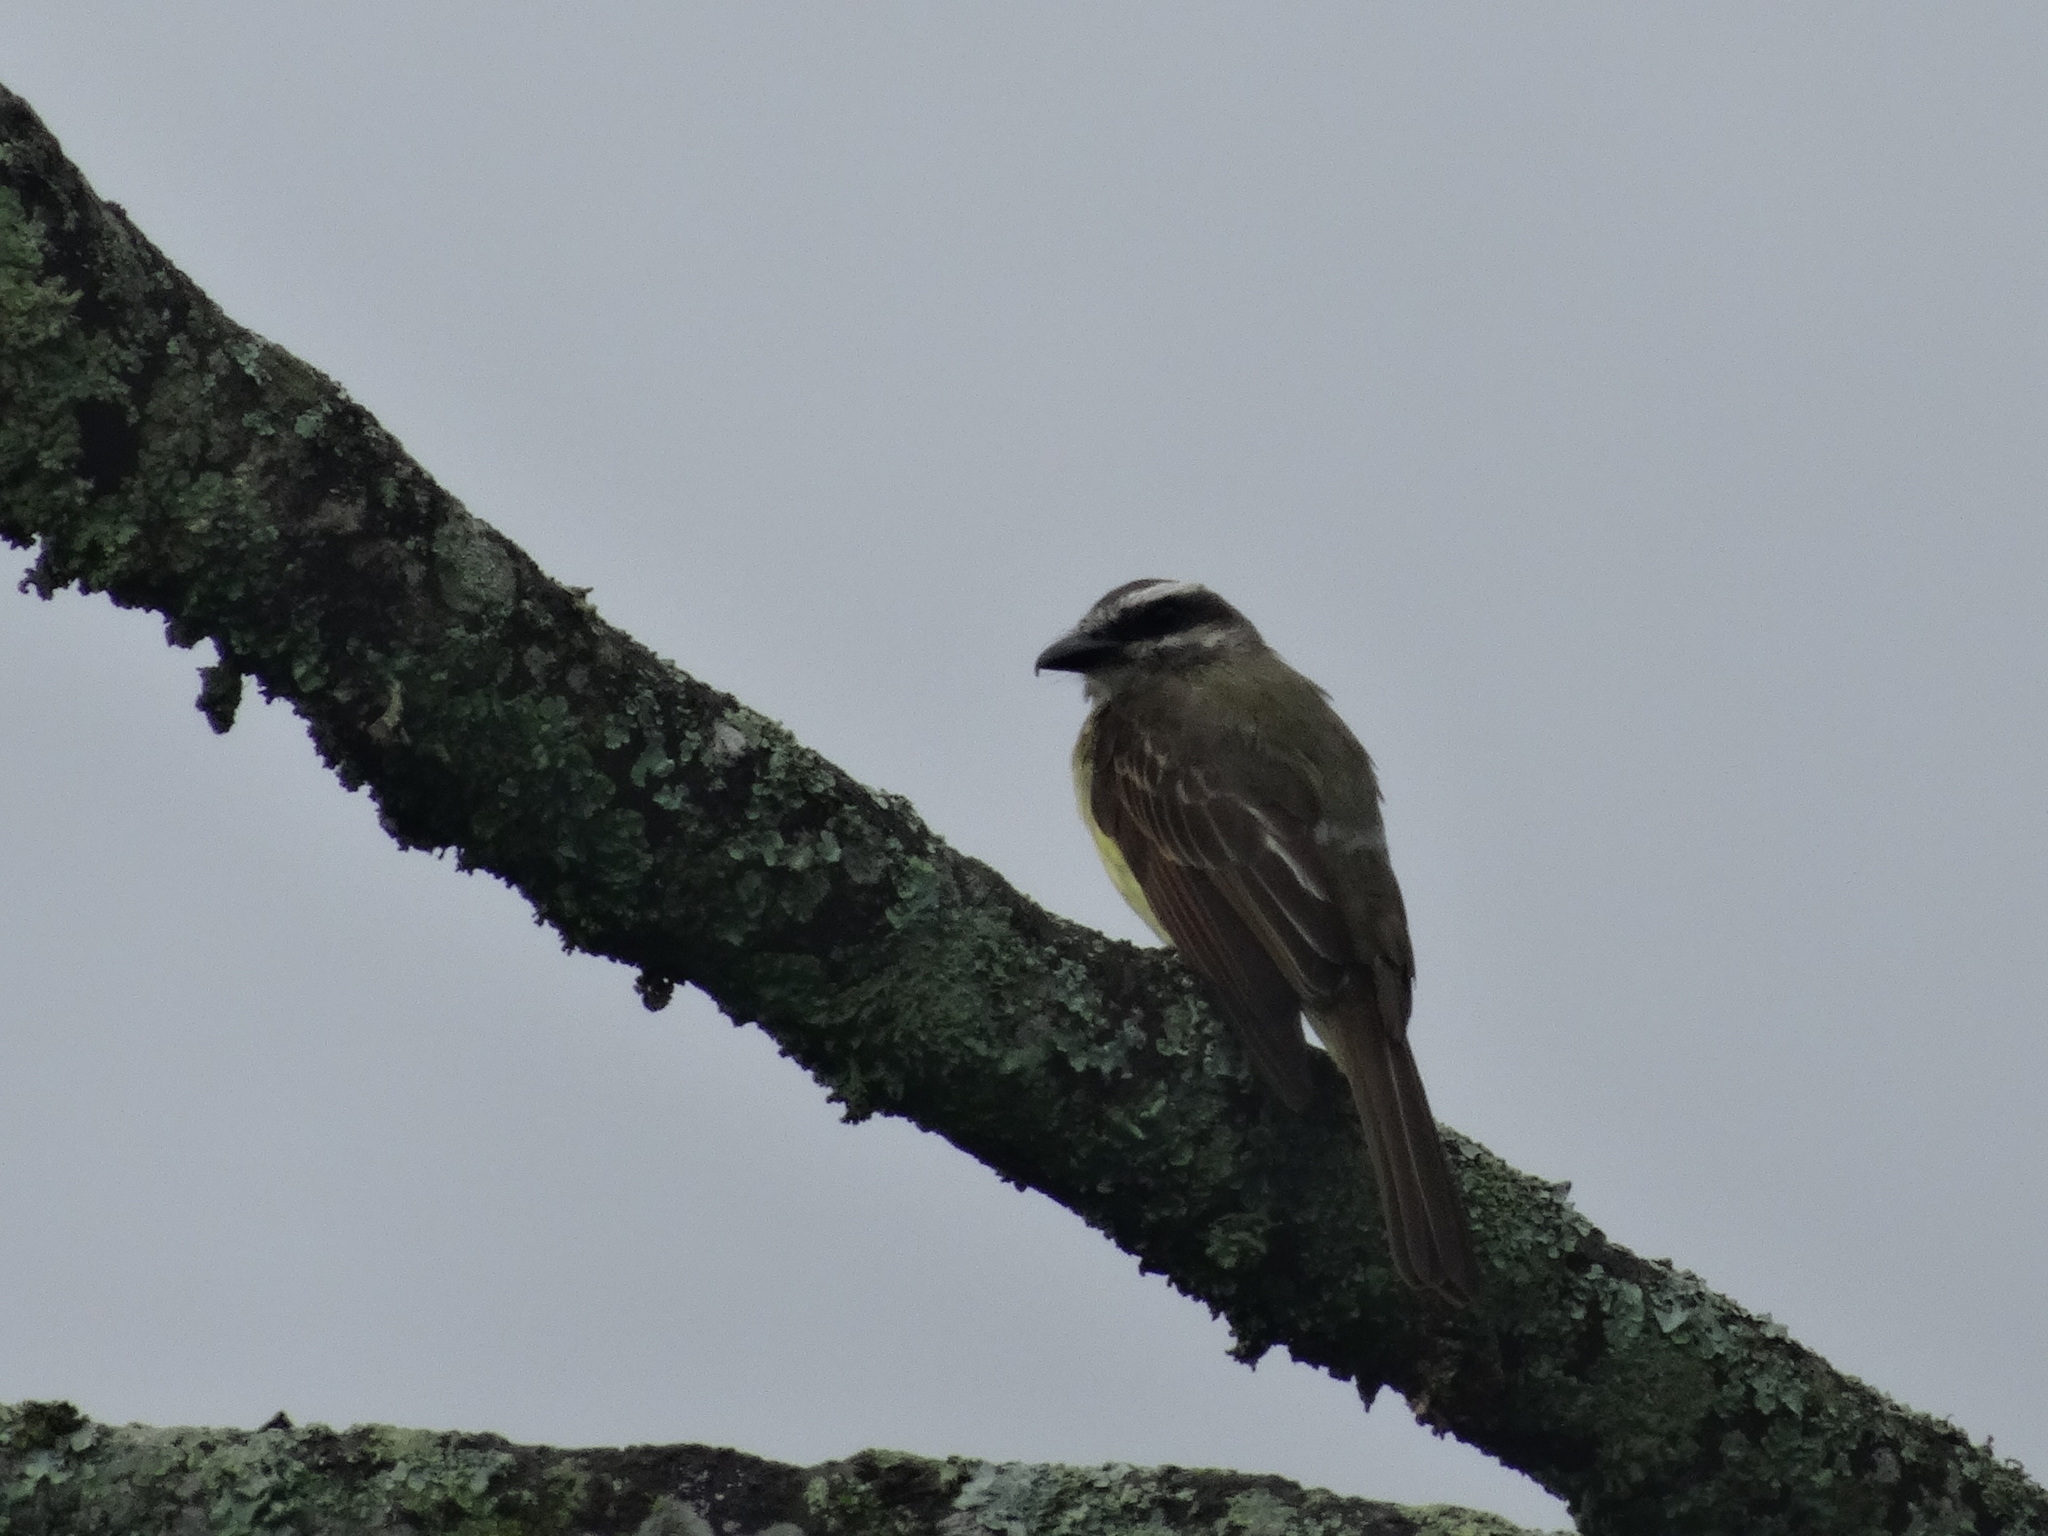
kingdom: Animalia
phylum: Chordata
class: Aves
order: Passeriformes
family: Tyrannidae
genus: Myiodynastes
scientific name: Myiodynastes hemichrysus
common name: Golden-bellied flycatcher
